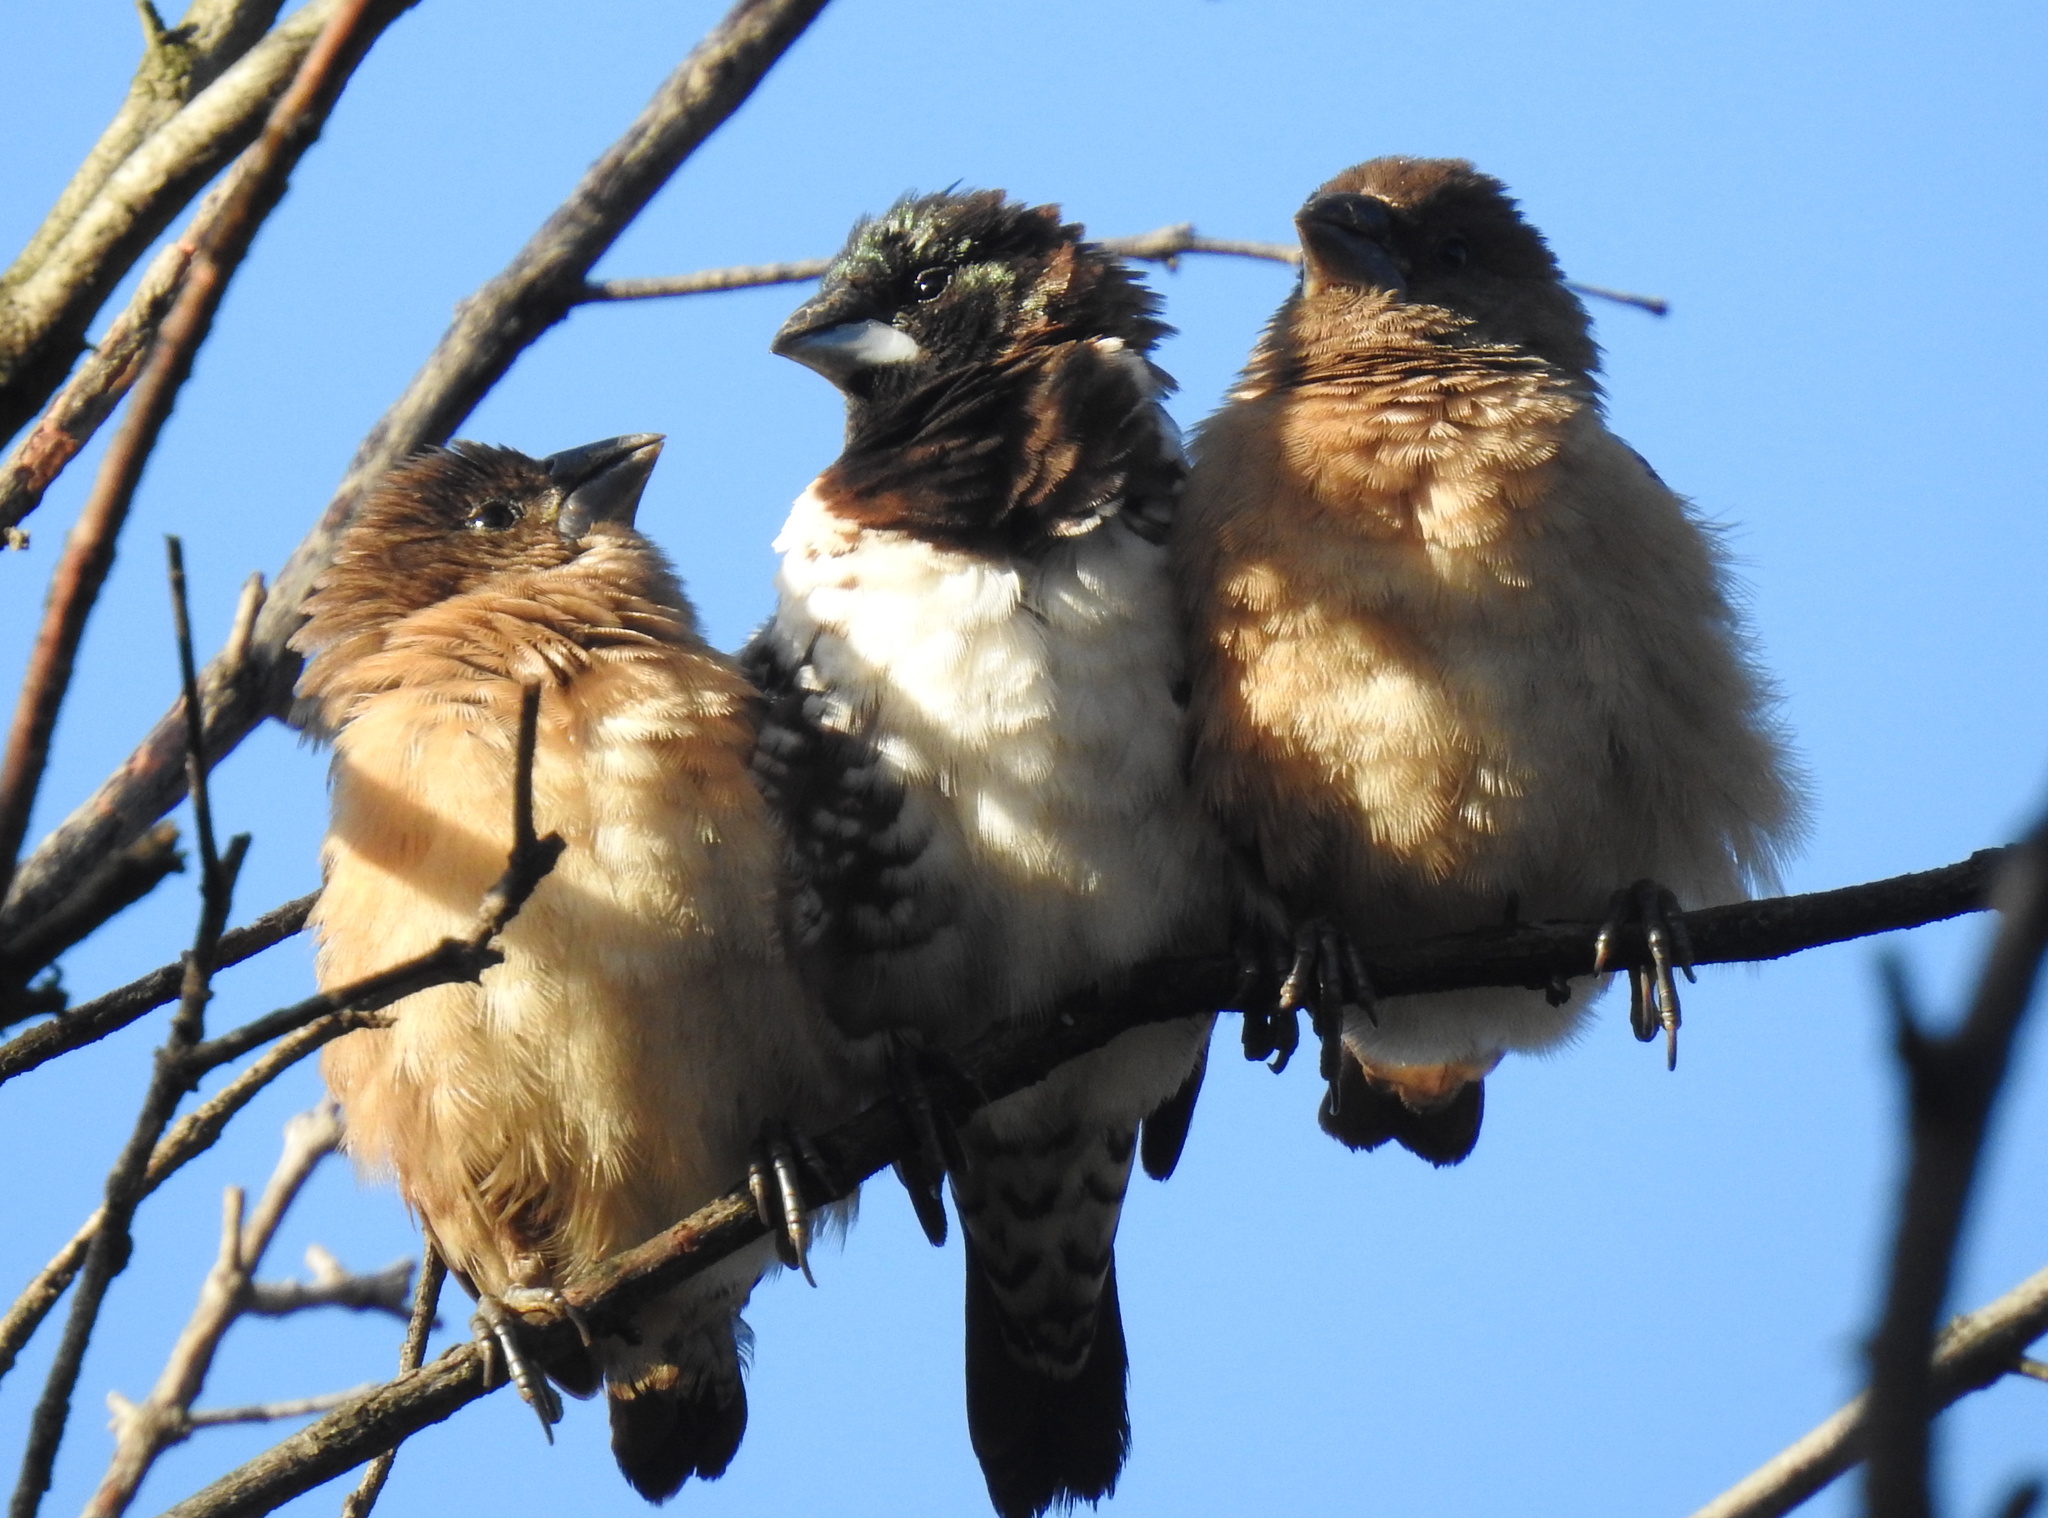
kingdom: Animalia
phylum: Chordata
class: Aves
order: Passeriformes
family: Estrildidae
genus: Lonchura
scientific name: Lonchura cucullata
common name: Bronze mannikin
